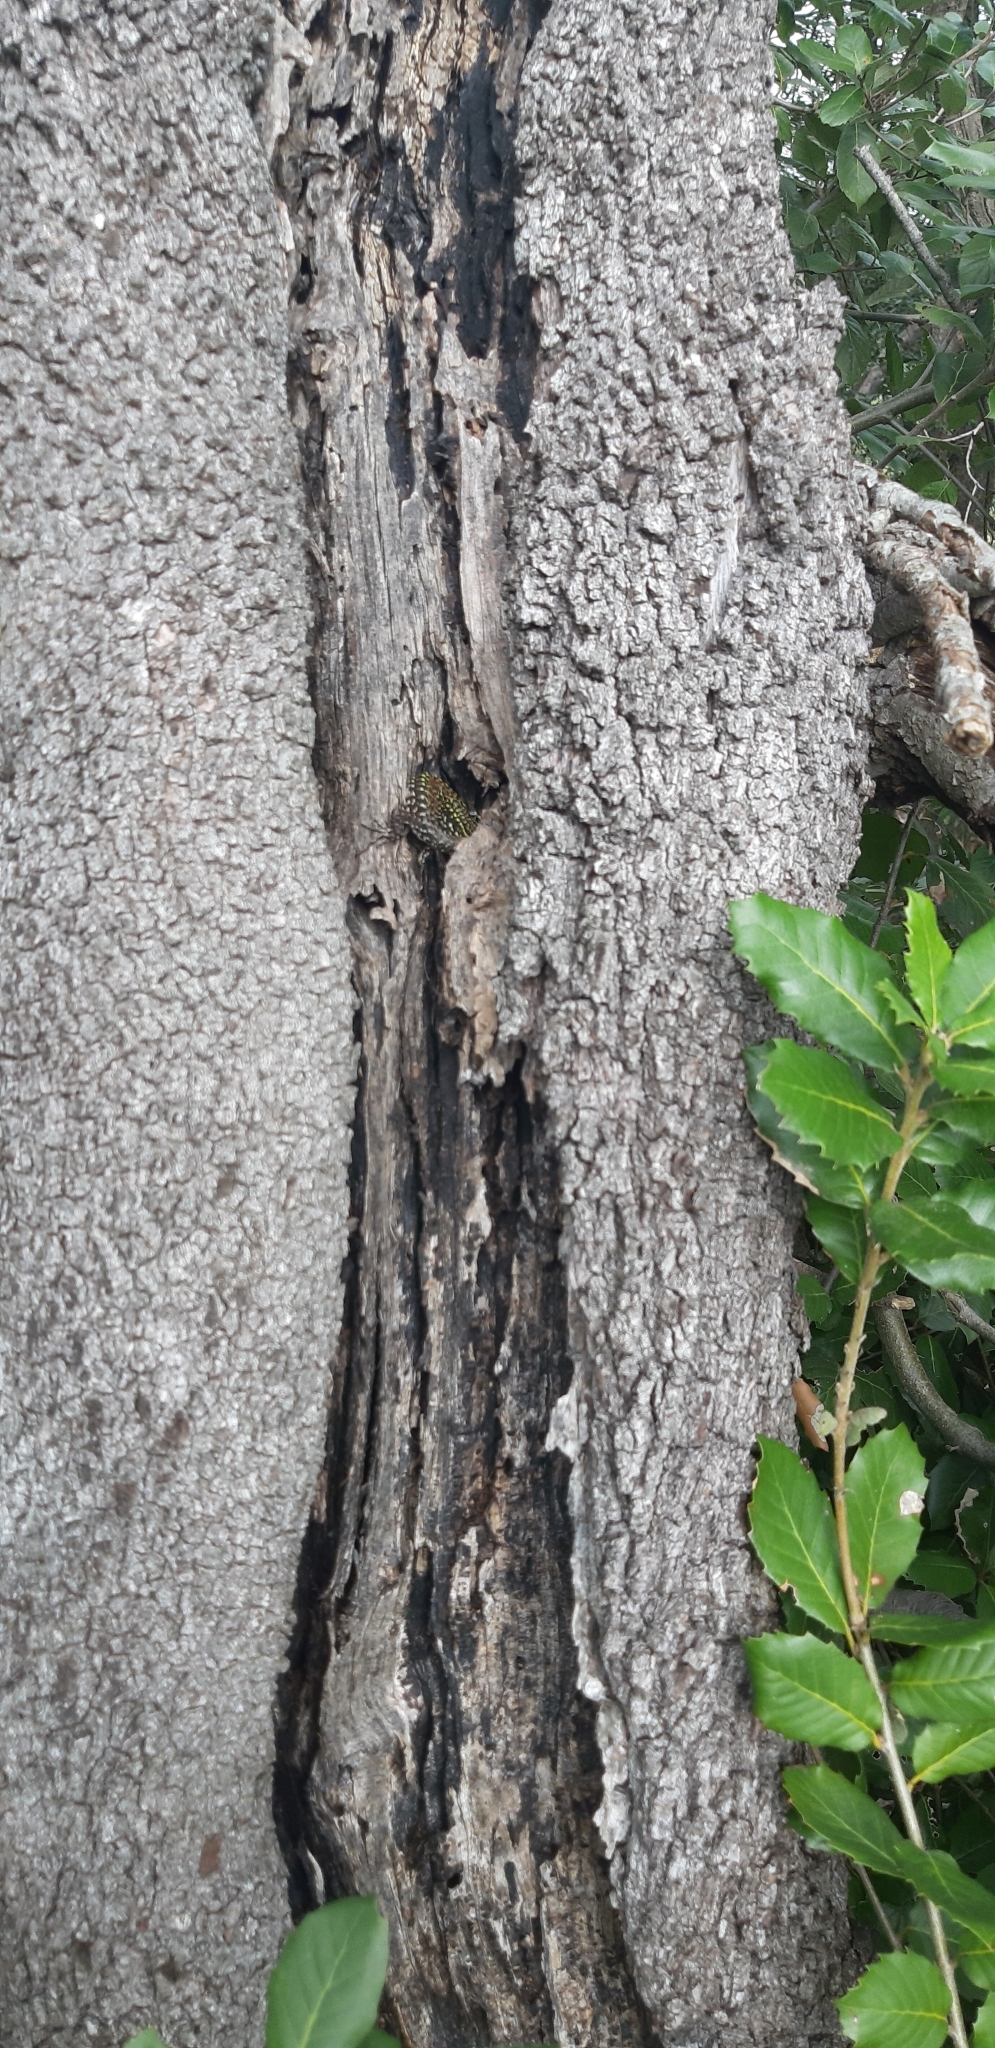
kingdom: Animalia
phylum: Chordata
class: Squamata
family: Lacertidae
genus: Podarcis
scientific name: Podarcis muralis
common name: Common wall lizard
